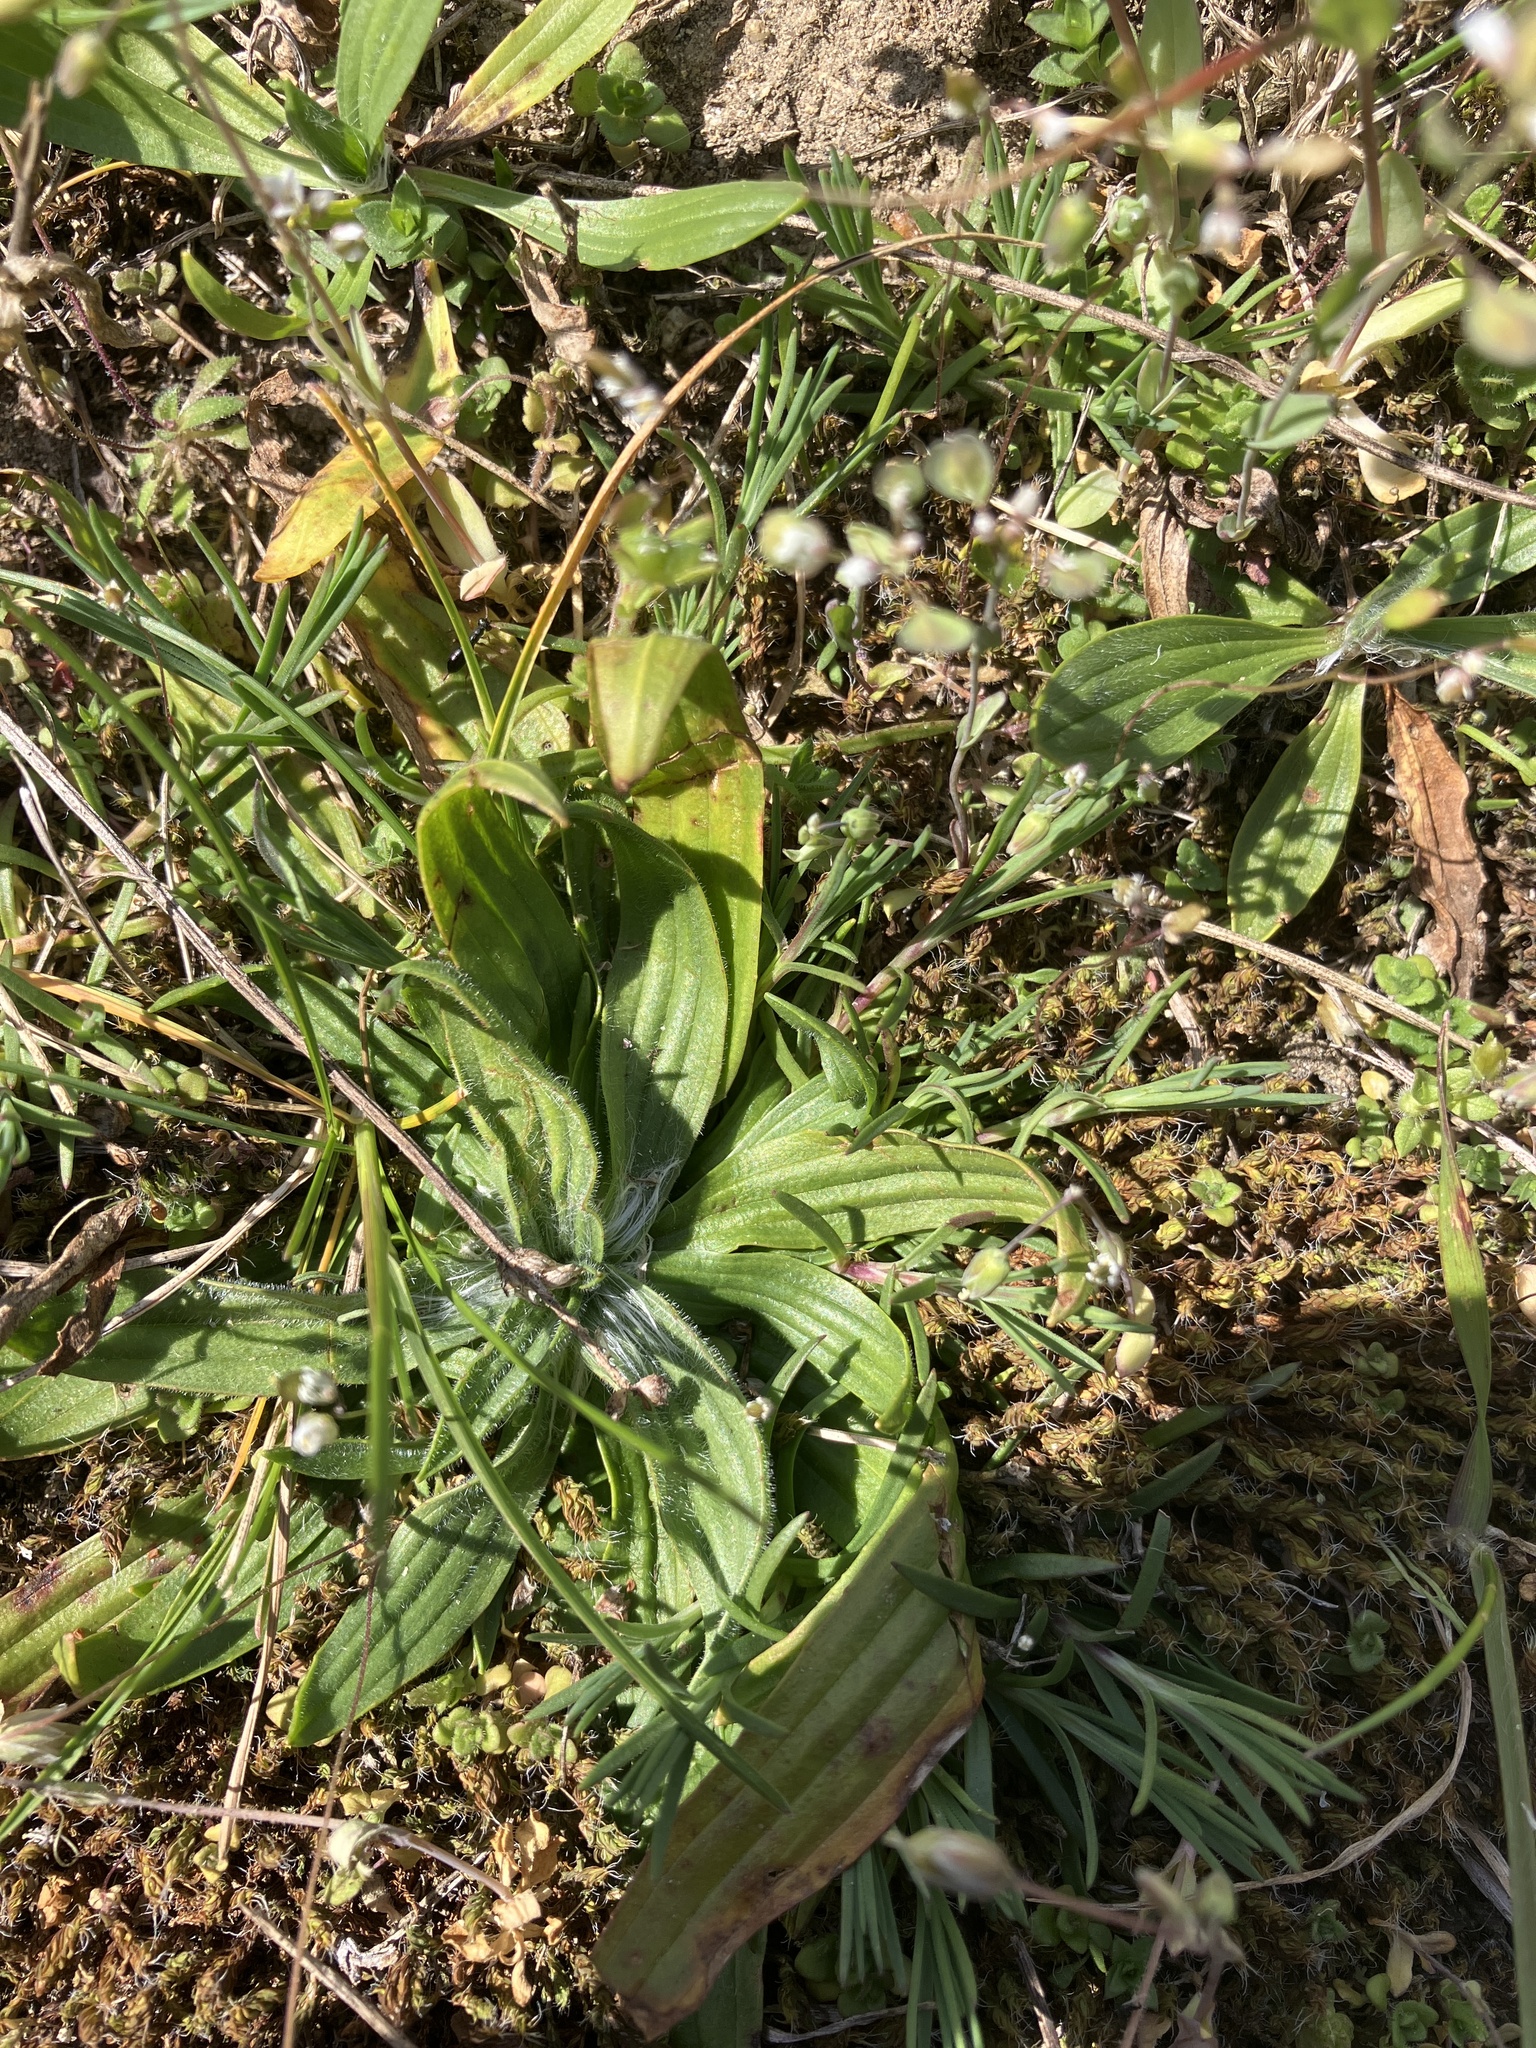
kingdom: Plantae
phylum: Tracheophyta
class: Magnoliopsida
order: Lamiales
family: Plantaginaceae
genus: Plantago
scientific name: Plantago lanceolata
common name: Ribwort plantain
